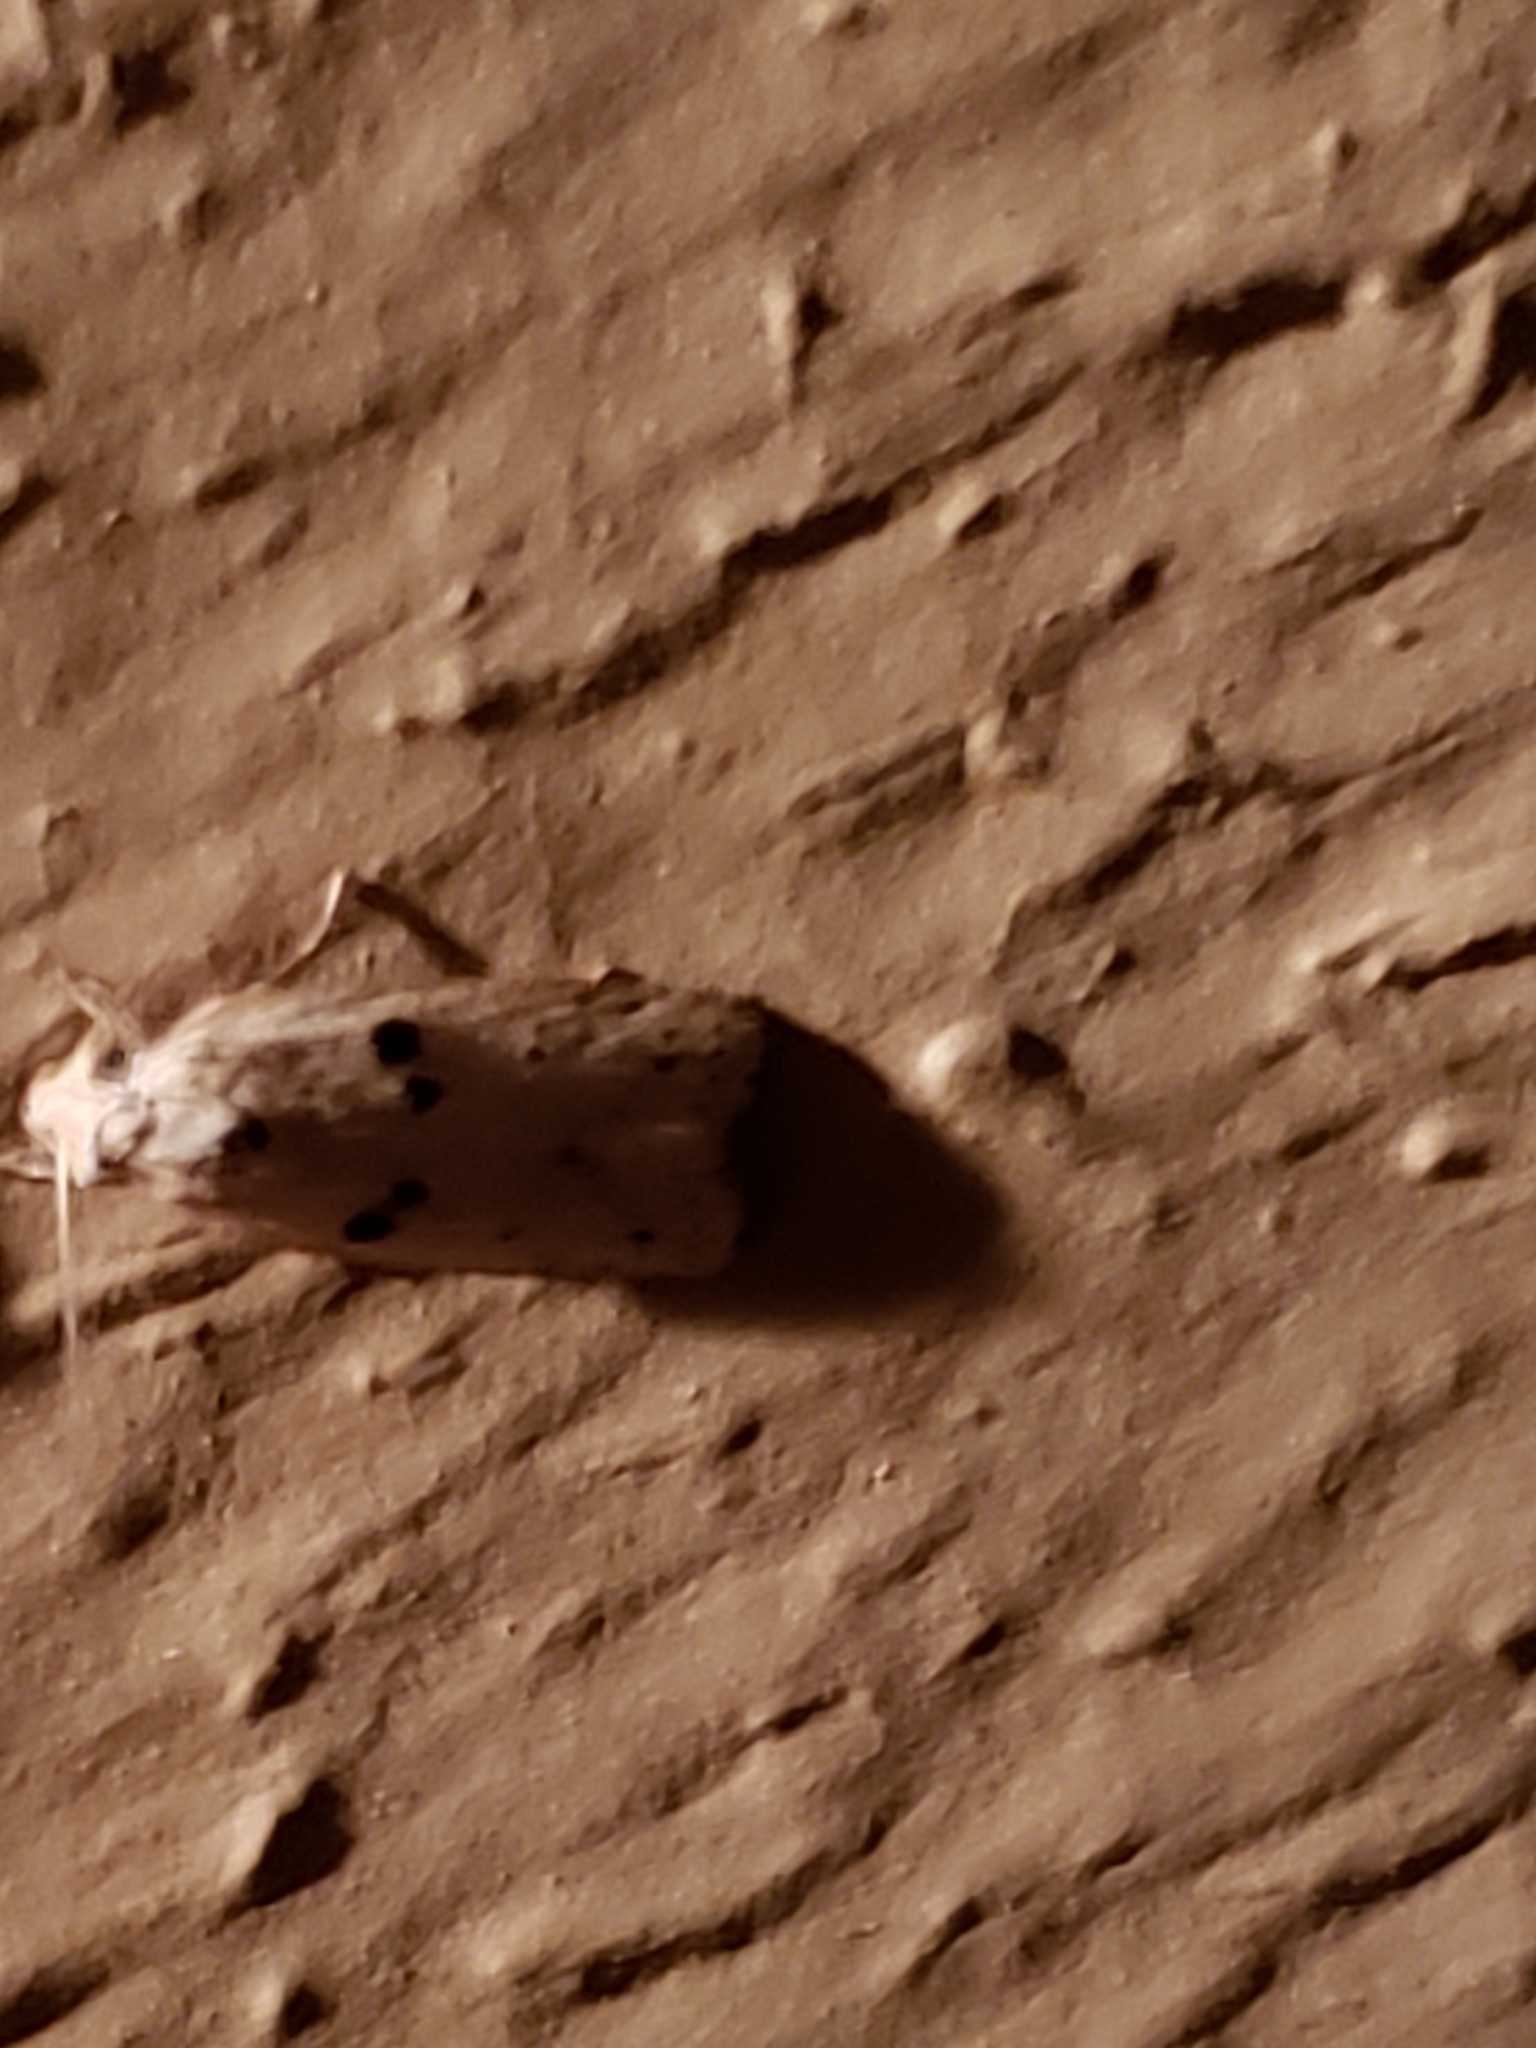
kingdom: Animalia
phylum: Arthropoda
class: Insecta
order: Lepidoptera
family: Peleopodidae
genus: Scythropiodes
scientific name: Scythropiodes issikii
